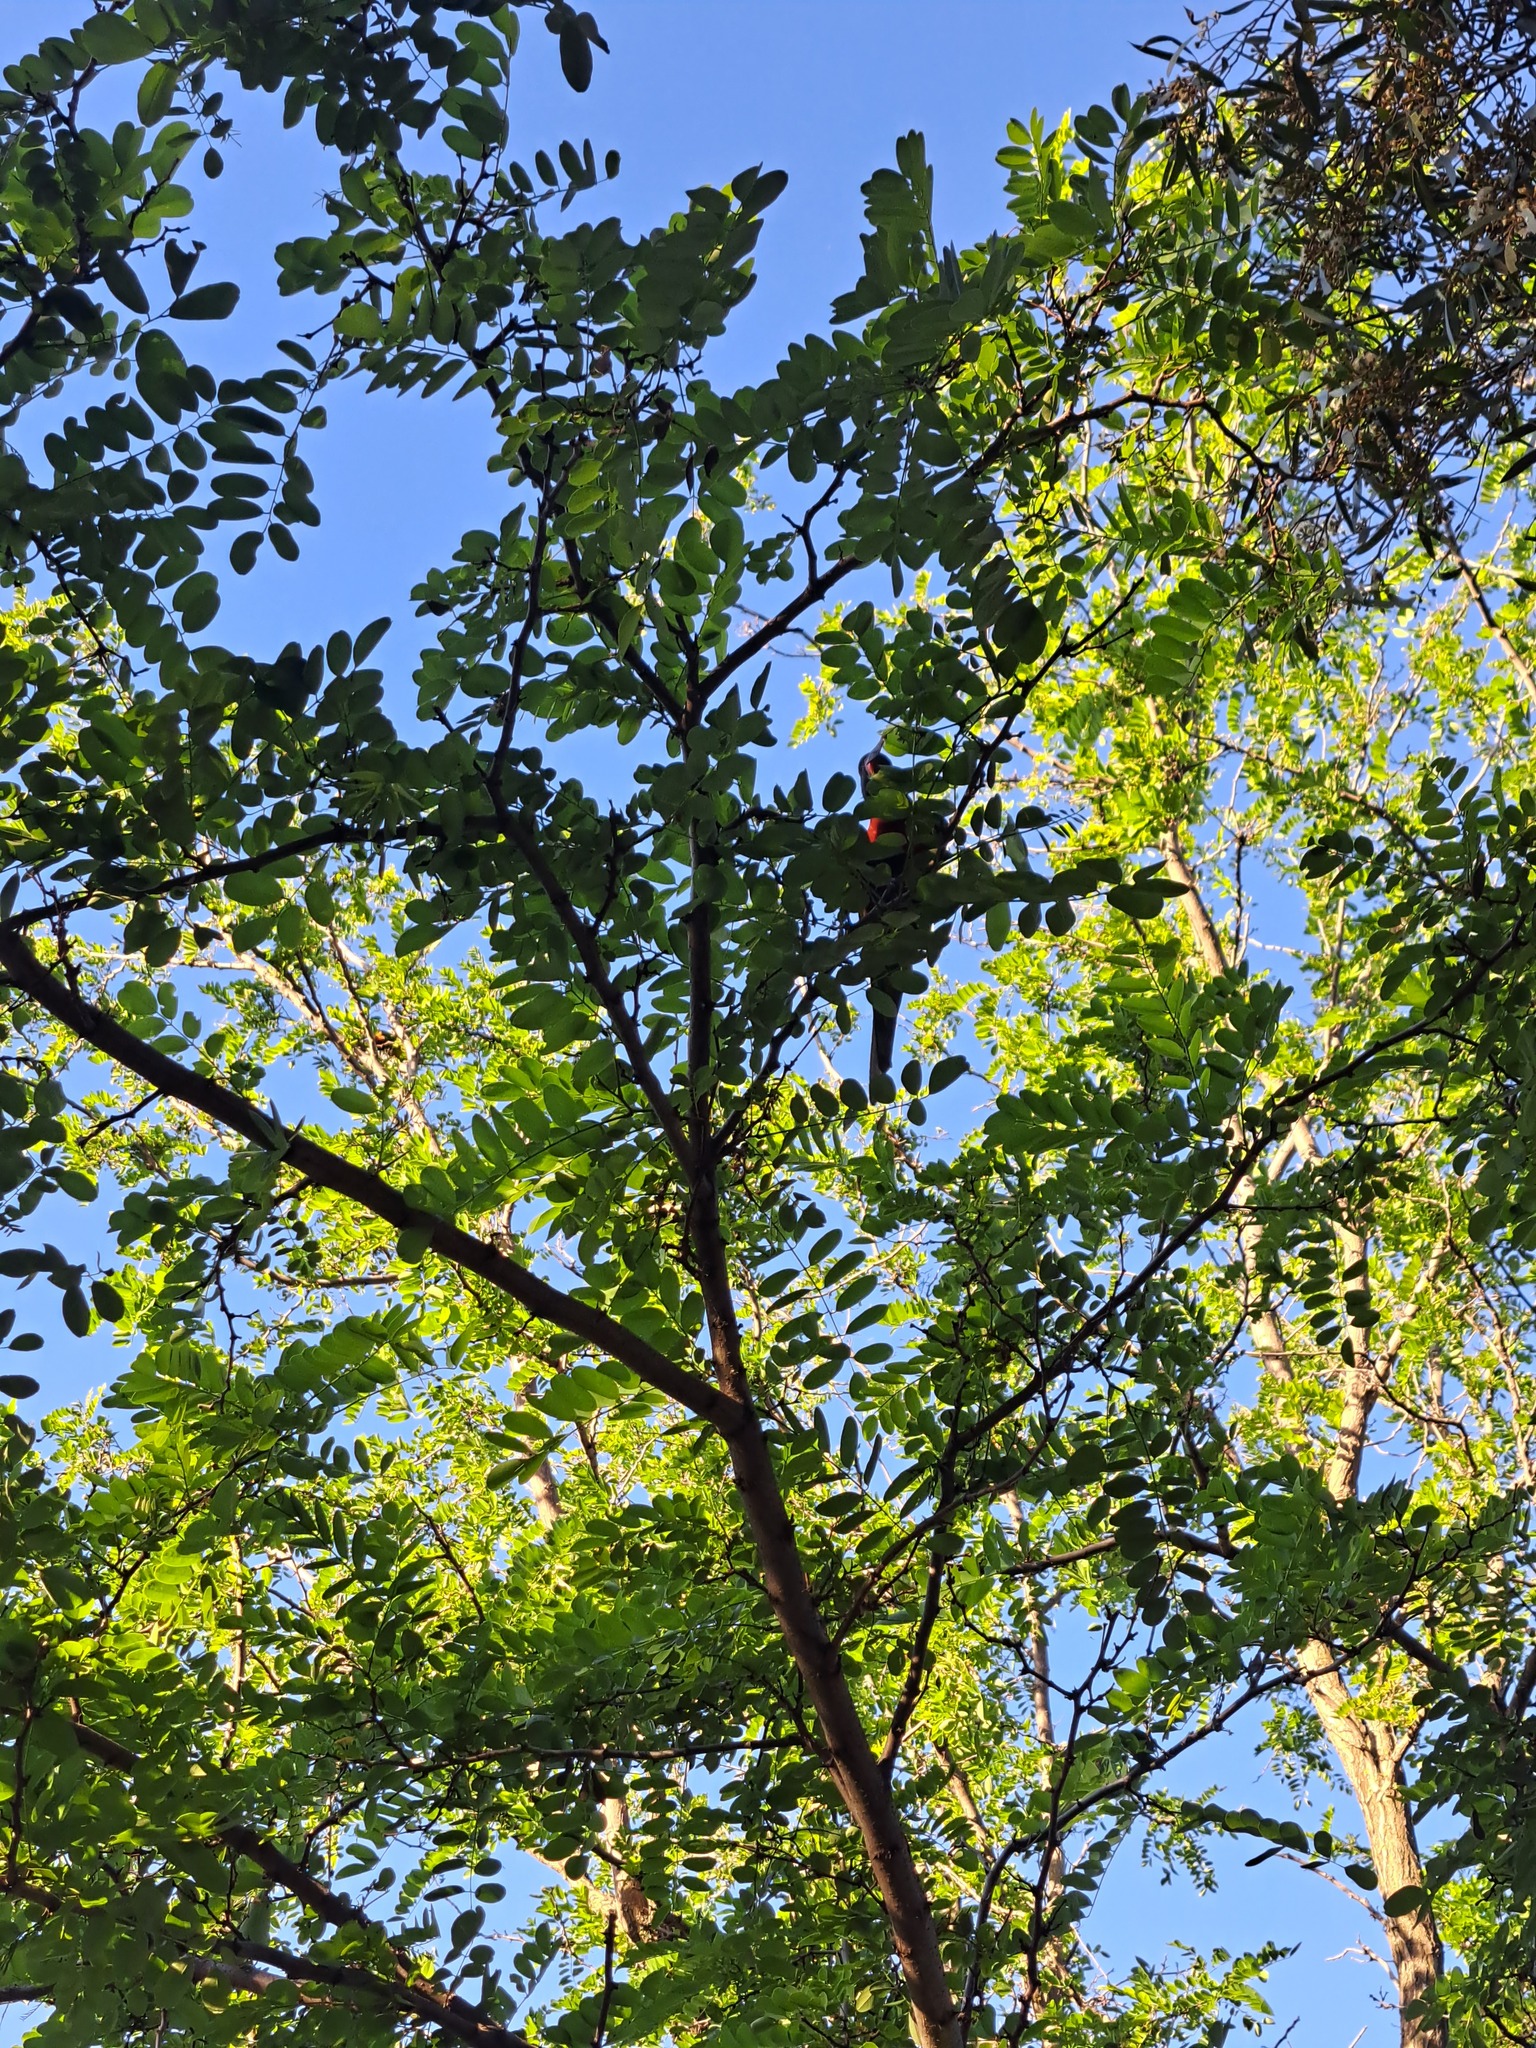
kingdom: Animalia
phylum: Chordata
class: Aves
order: Psittaciformes
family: Psittacidae
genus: Trichoglossus
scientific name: Trichoglossus haematodus
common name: Coconut lorikeet
